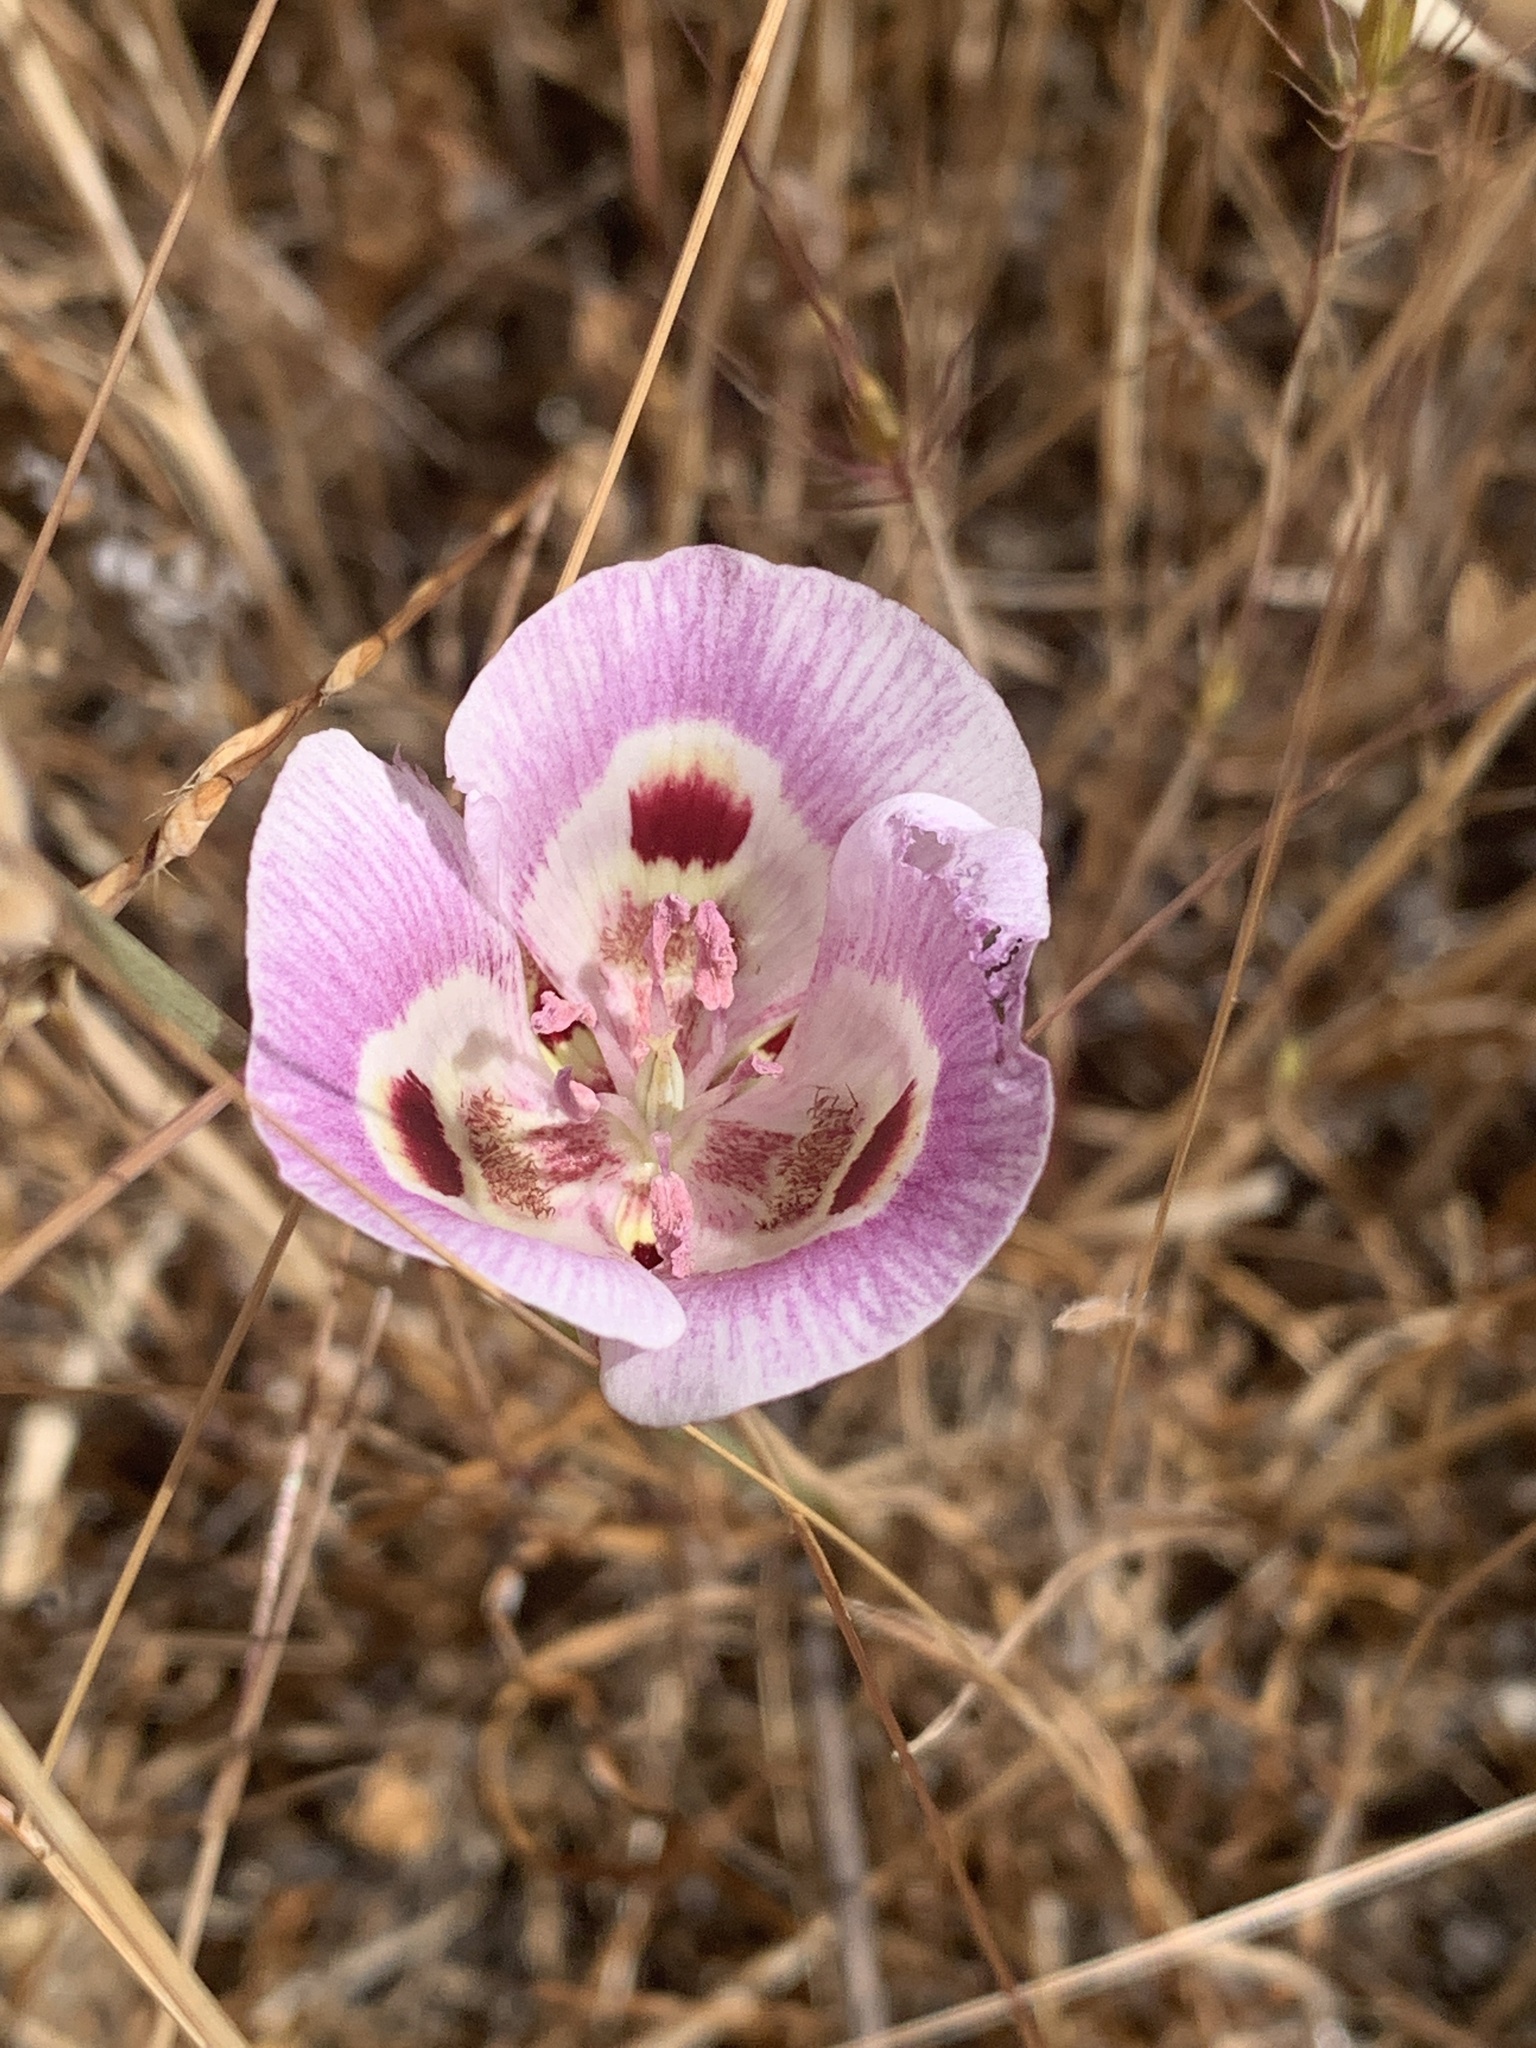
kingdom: Plantae
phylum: Tracheophyta
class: Liliopsida
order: Liliales
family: Liliaceae
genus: Calochortus
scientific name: Calochortus argillosus
